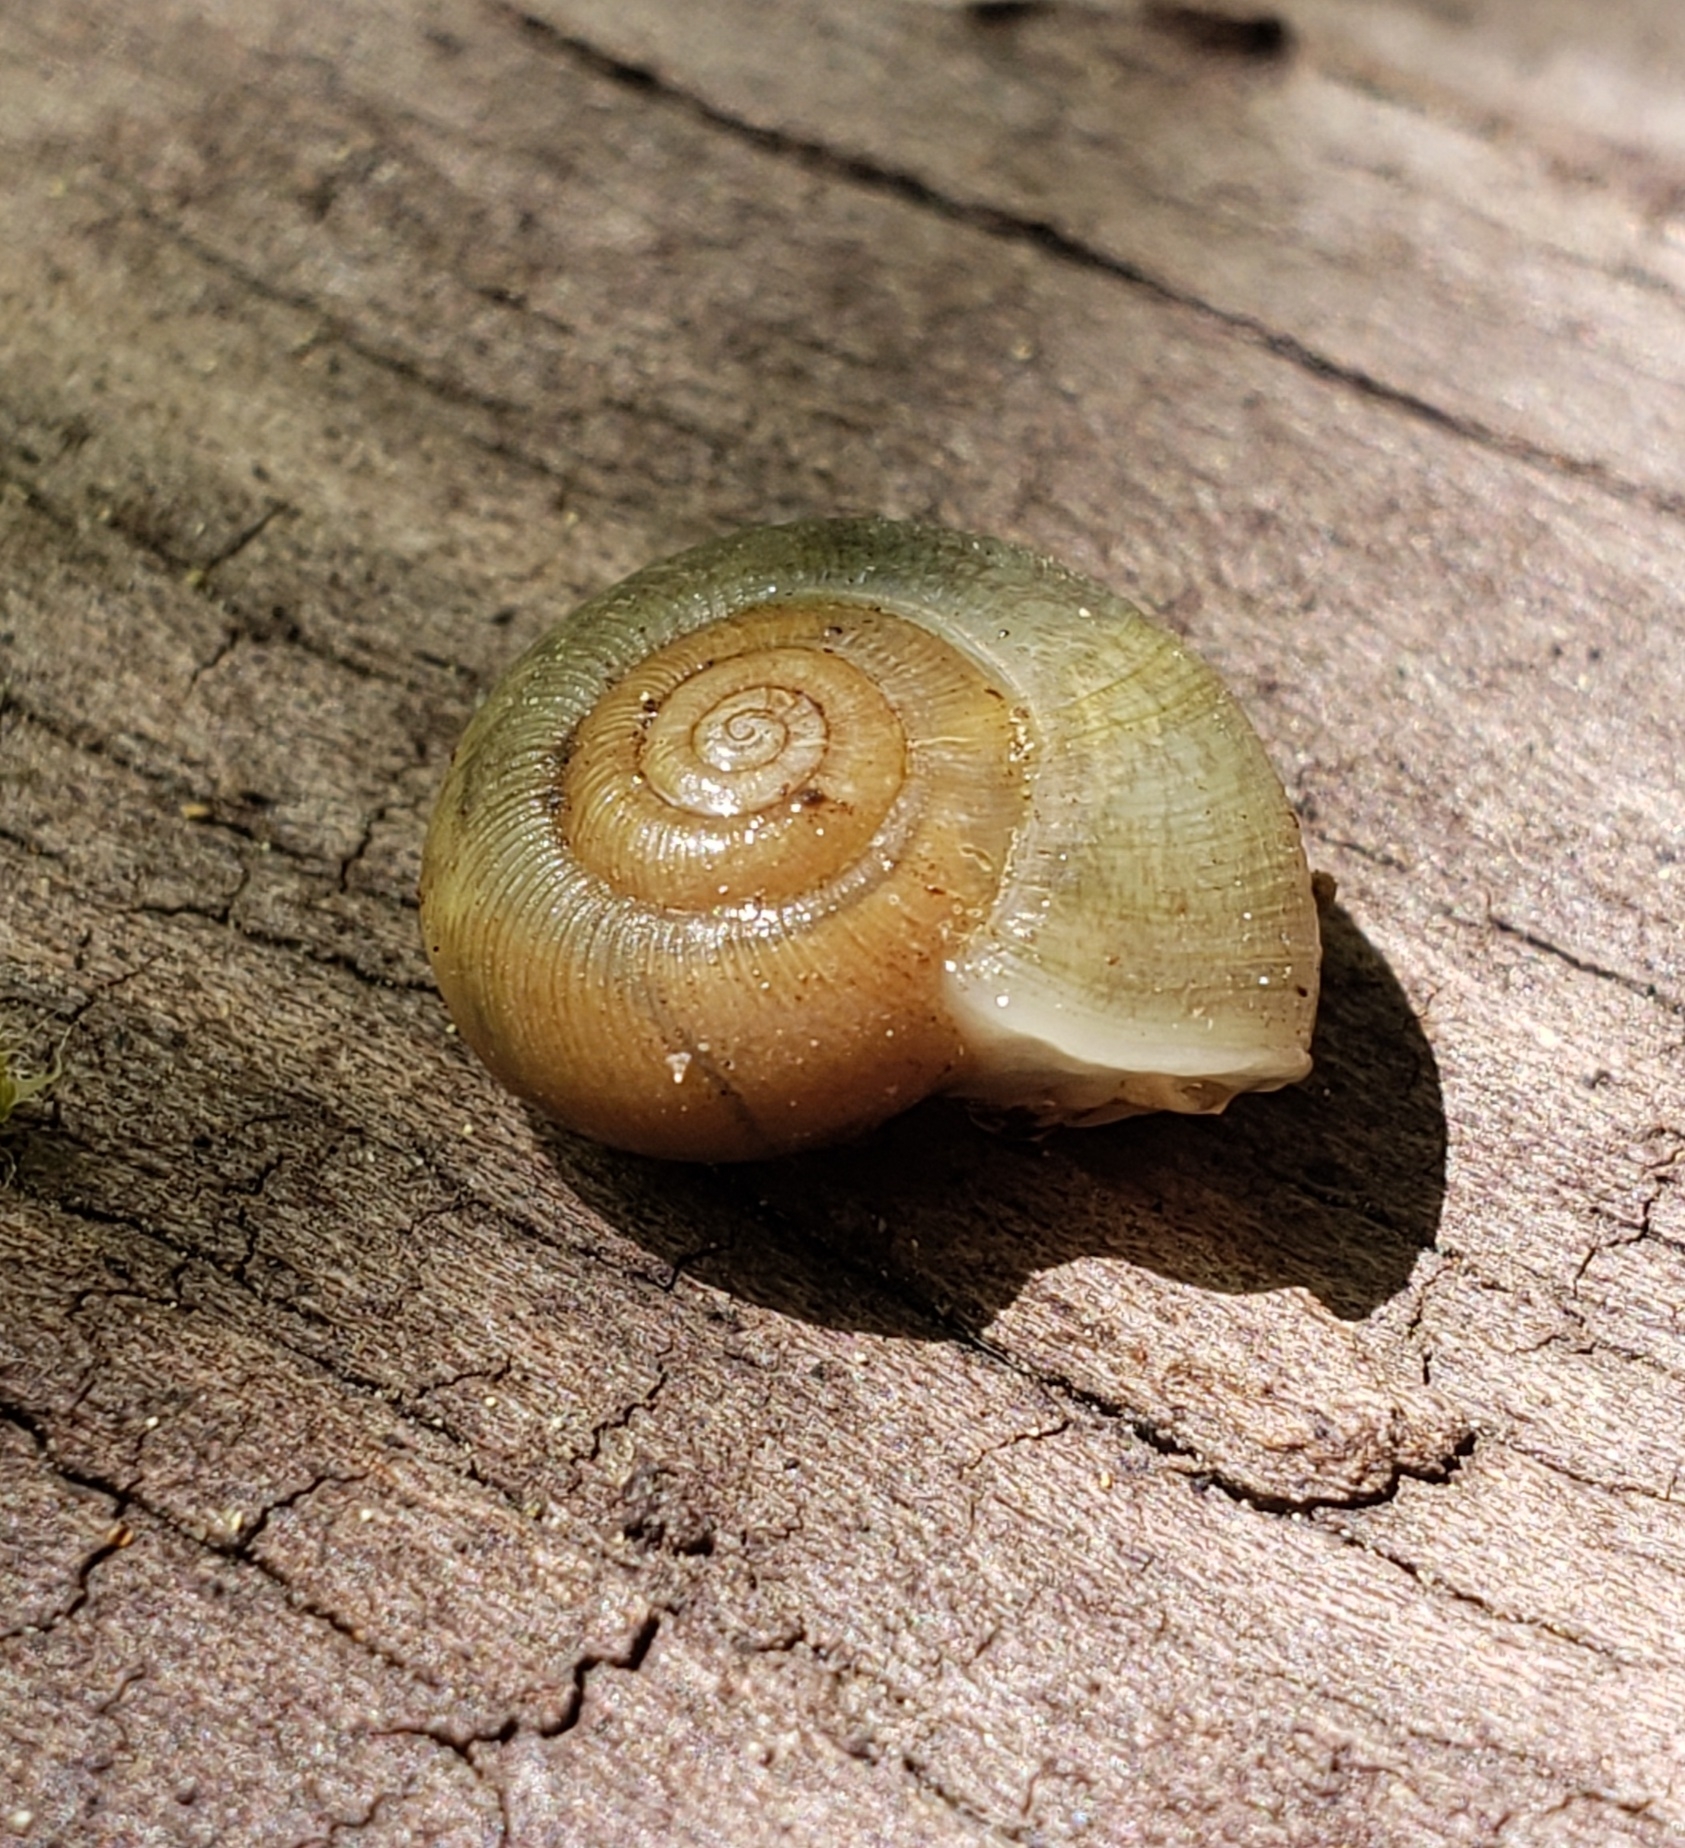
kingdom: Animalia
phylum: Mollusca
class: Gastropoda
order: Stylommatophora
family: Haplotrematidae
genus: Ancotrema
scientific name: Ancotrema sportella
